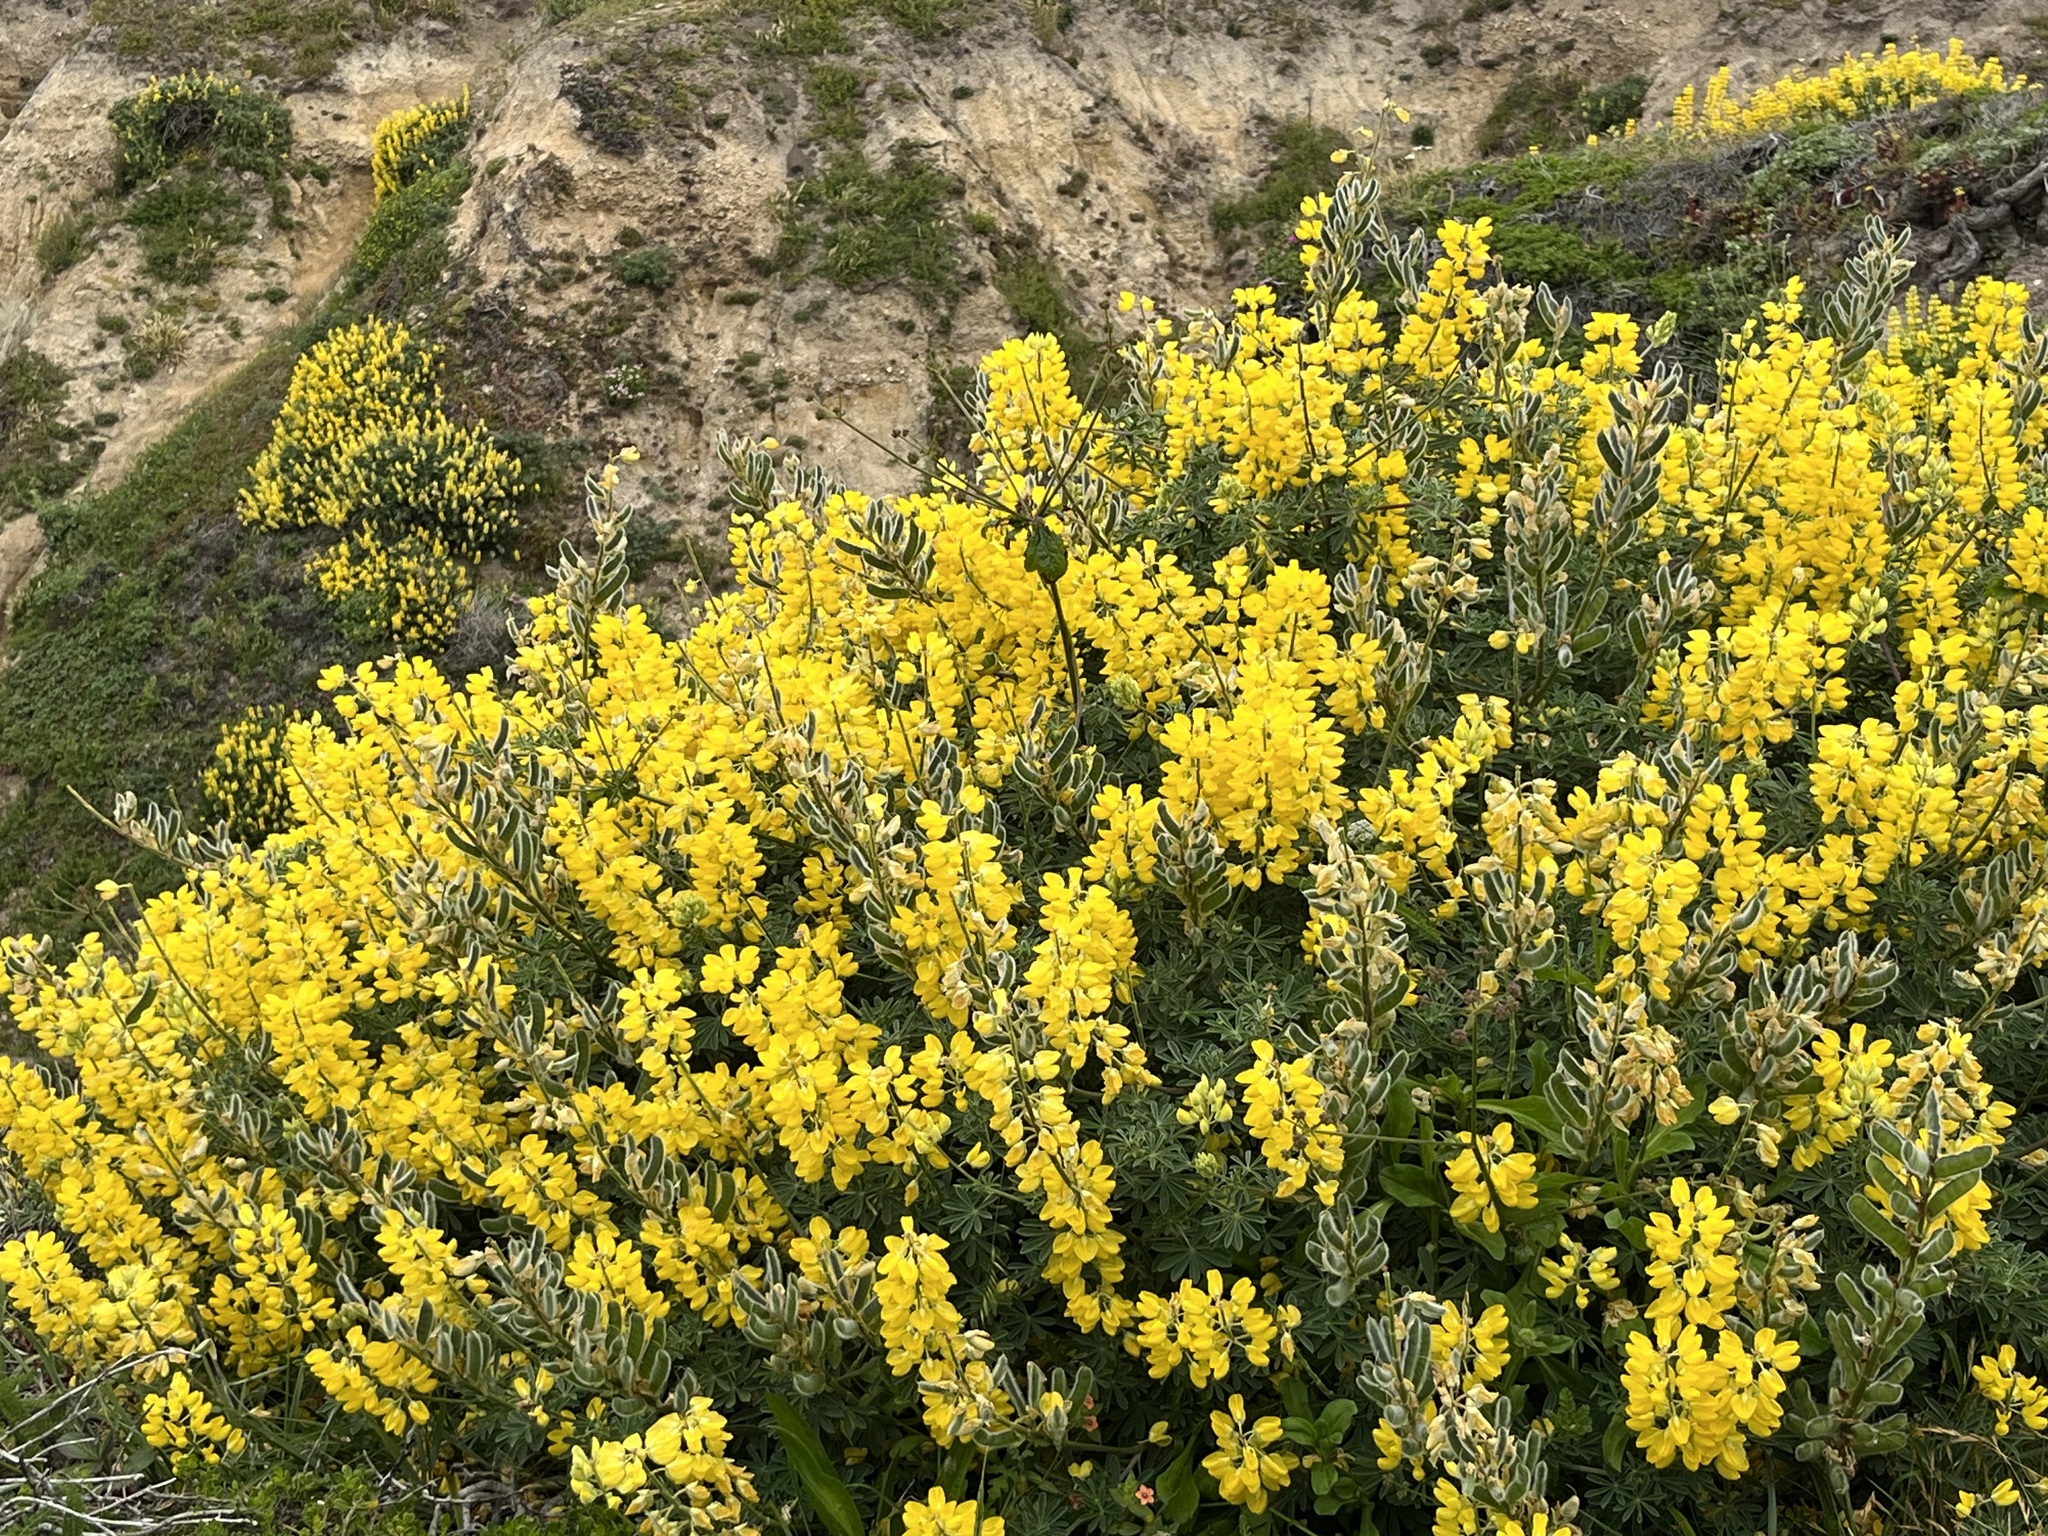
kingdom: Plantae
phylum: Tracheophyta
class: Magnoliopsida
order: Fabales
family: Fabaceae
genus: Lupinus
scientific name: Lupinus arboreus
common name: Yellow bush lupine
